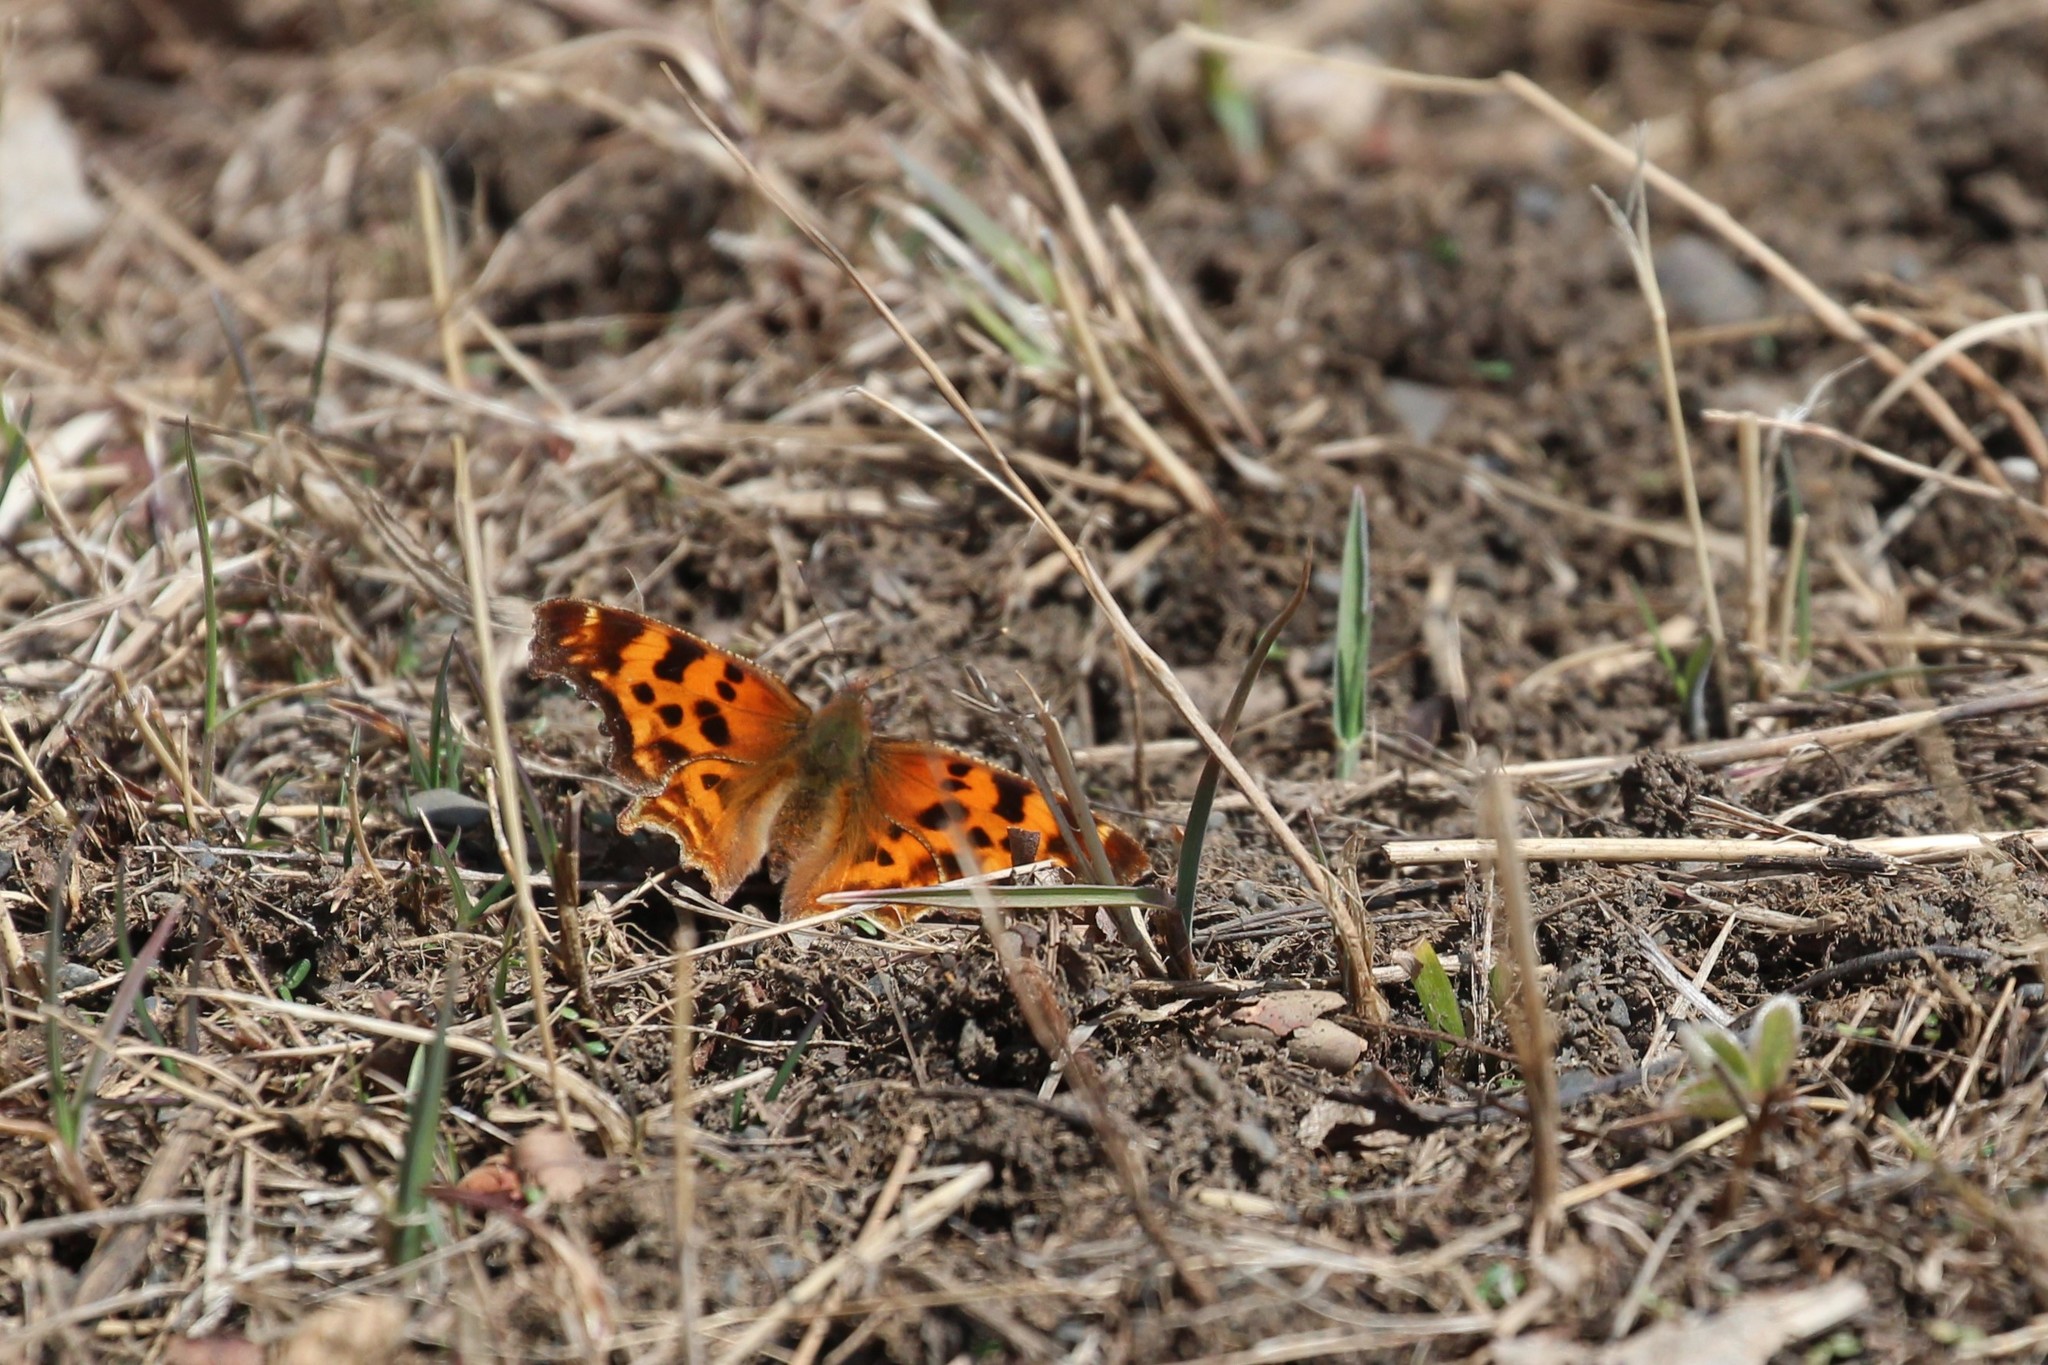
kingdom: Animalia
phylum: Arthropoda
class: Insecta
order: Lepidoptera
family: Nymphalidae
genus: Polygonia
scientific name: Polygonia satyrus
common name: Satyr angle wing
